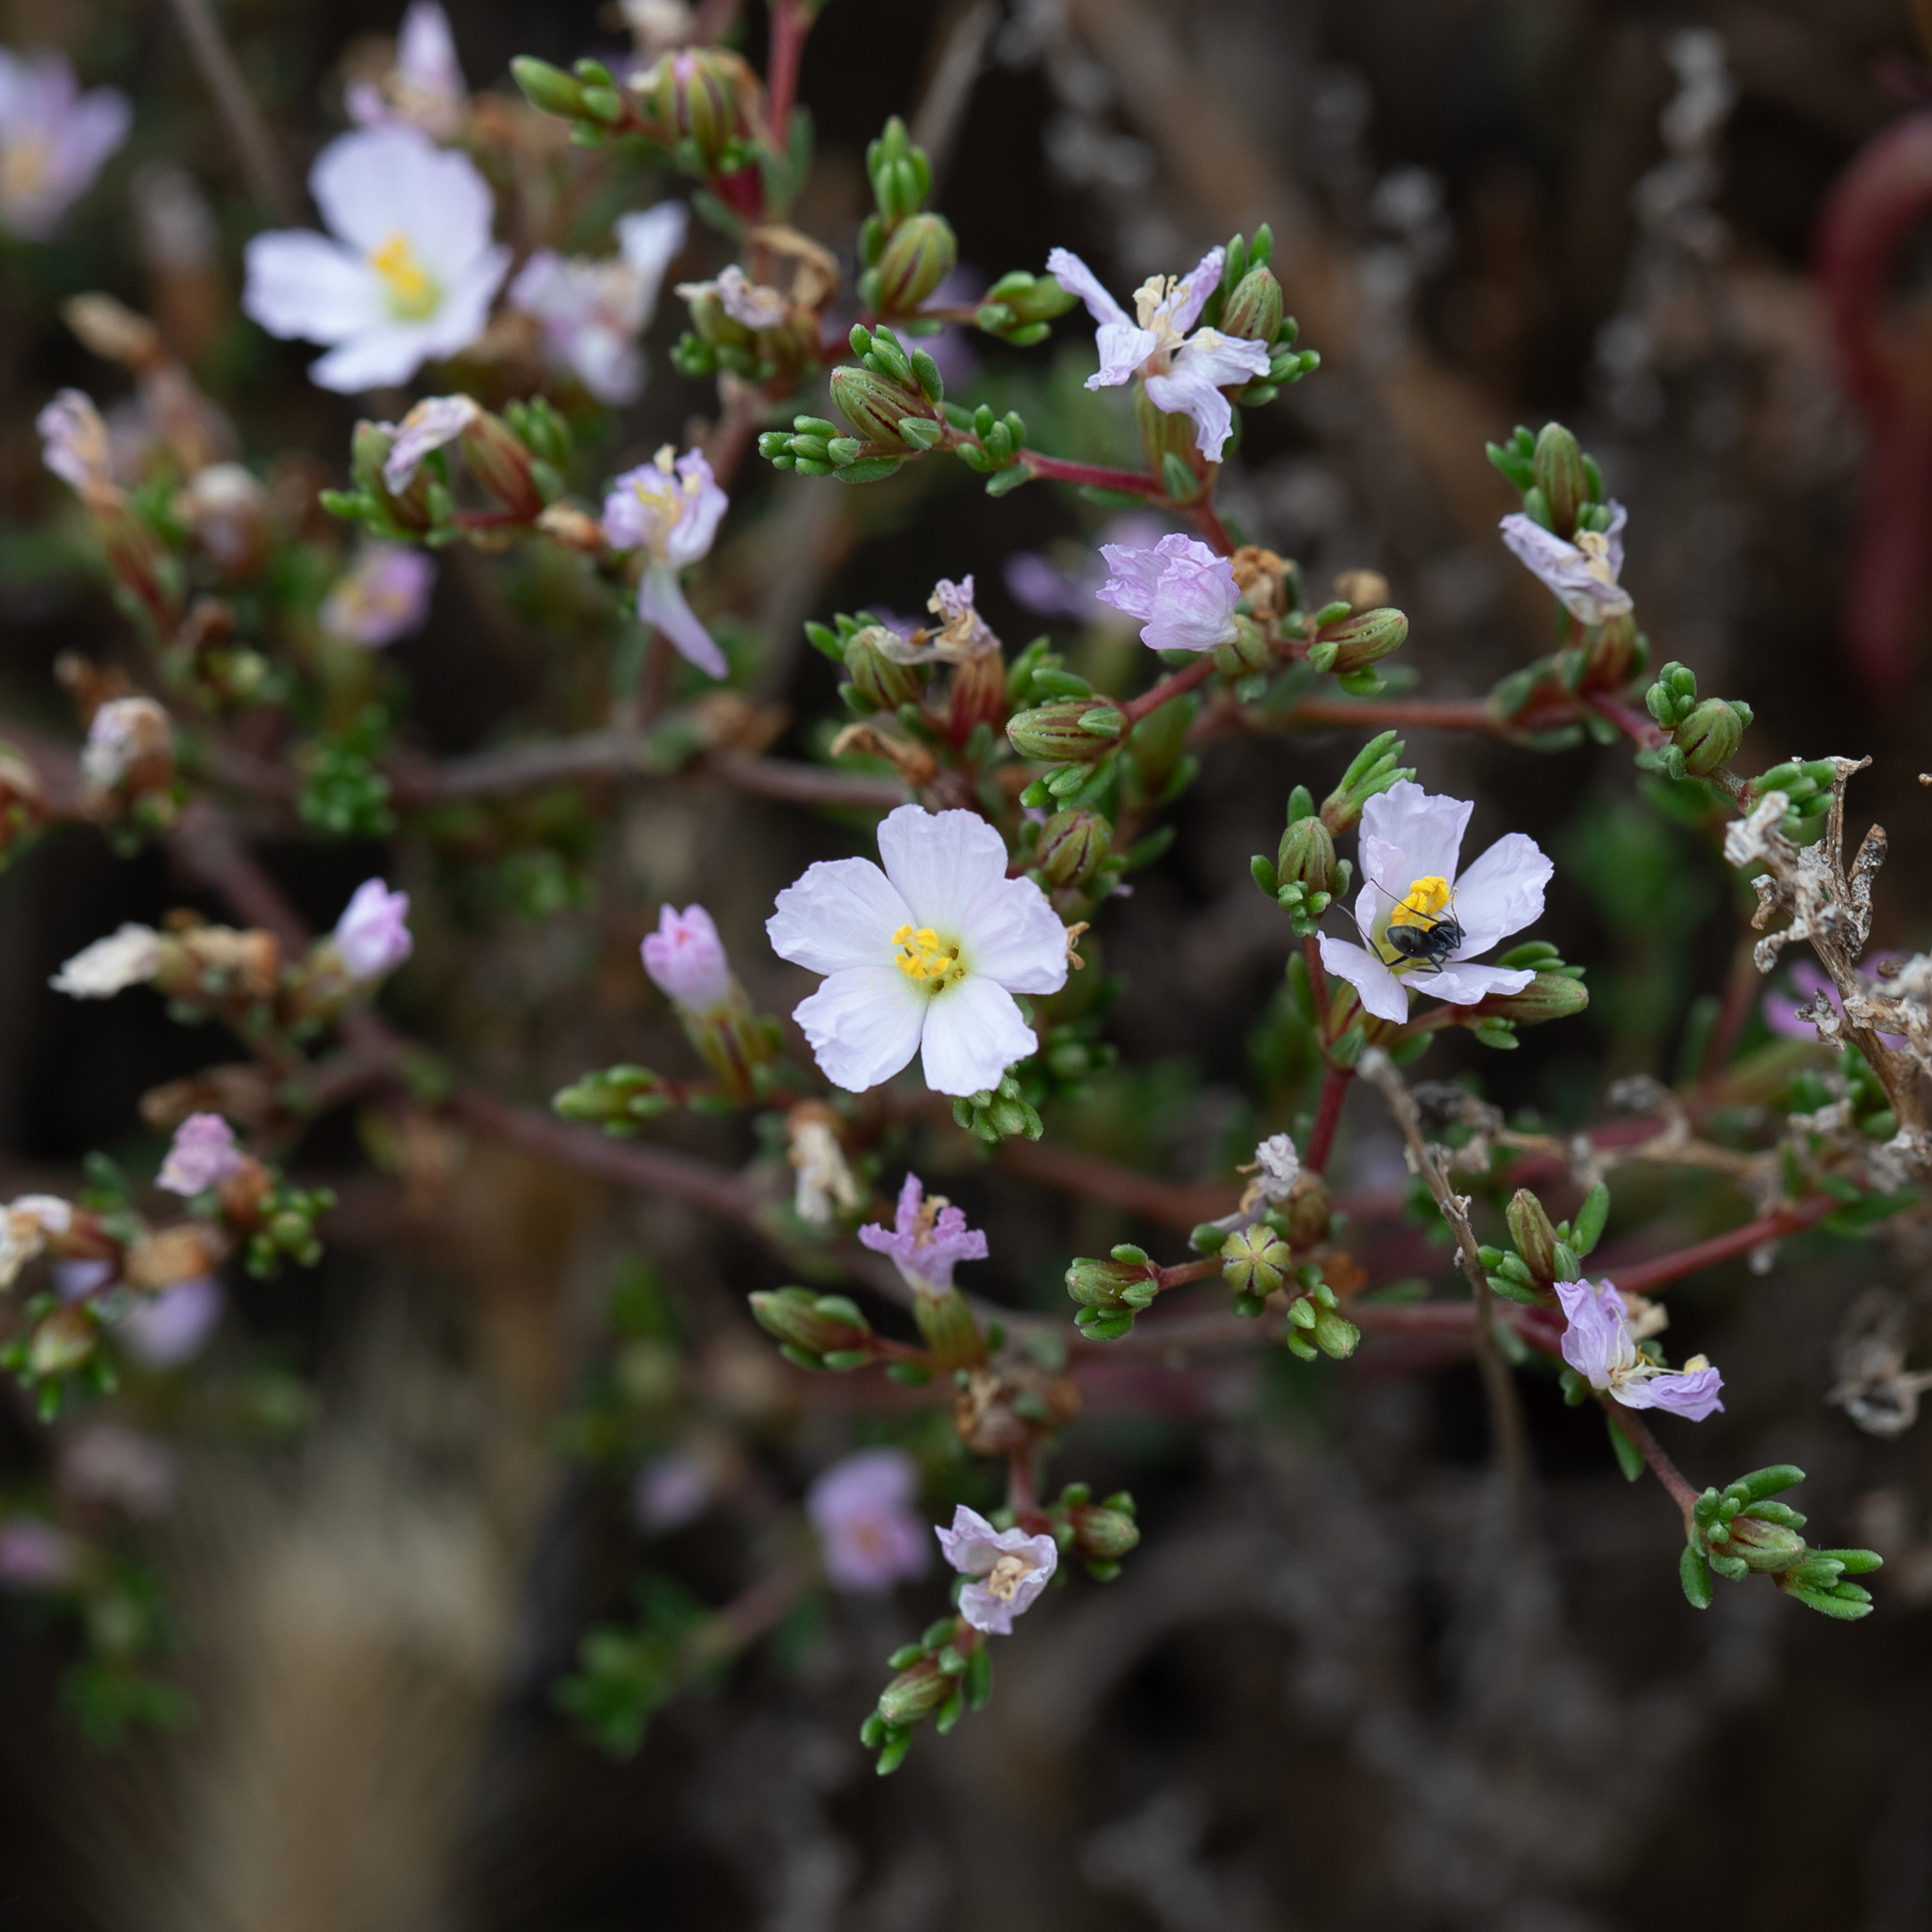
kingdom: Plantae
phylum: Tracheophyta
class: Magnoliopsida
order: Caryophyllales
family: Frankeniaceae
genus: Frankenia
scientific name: Frankenia pauciflora
